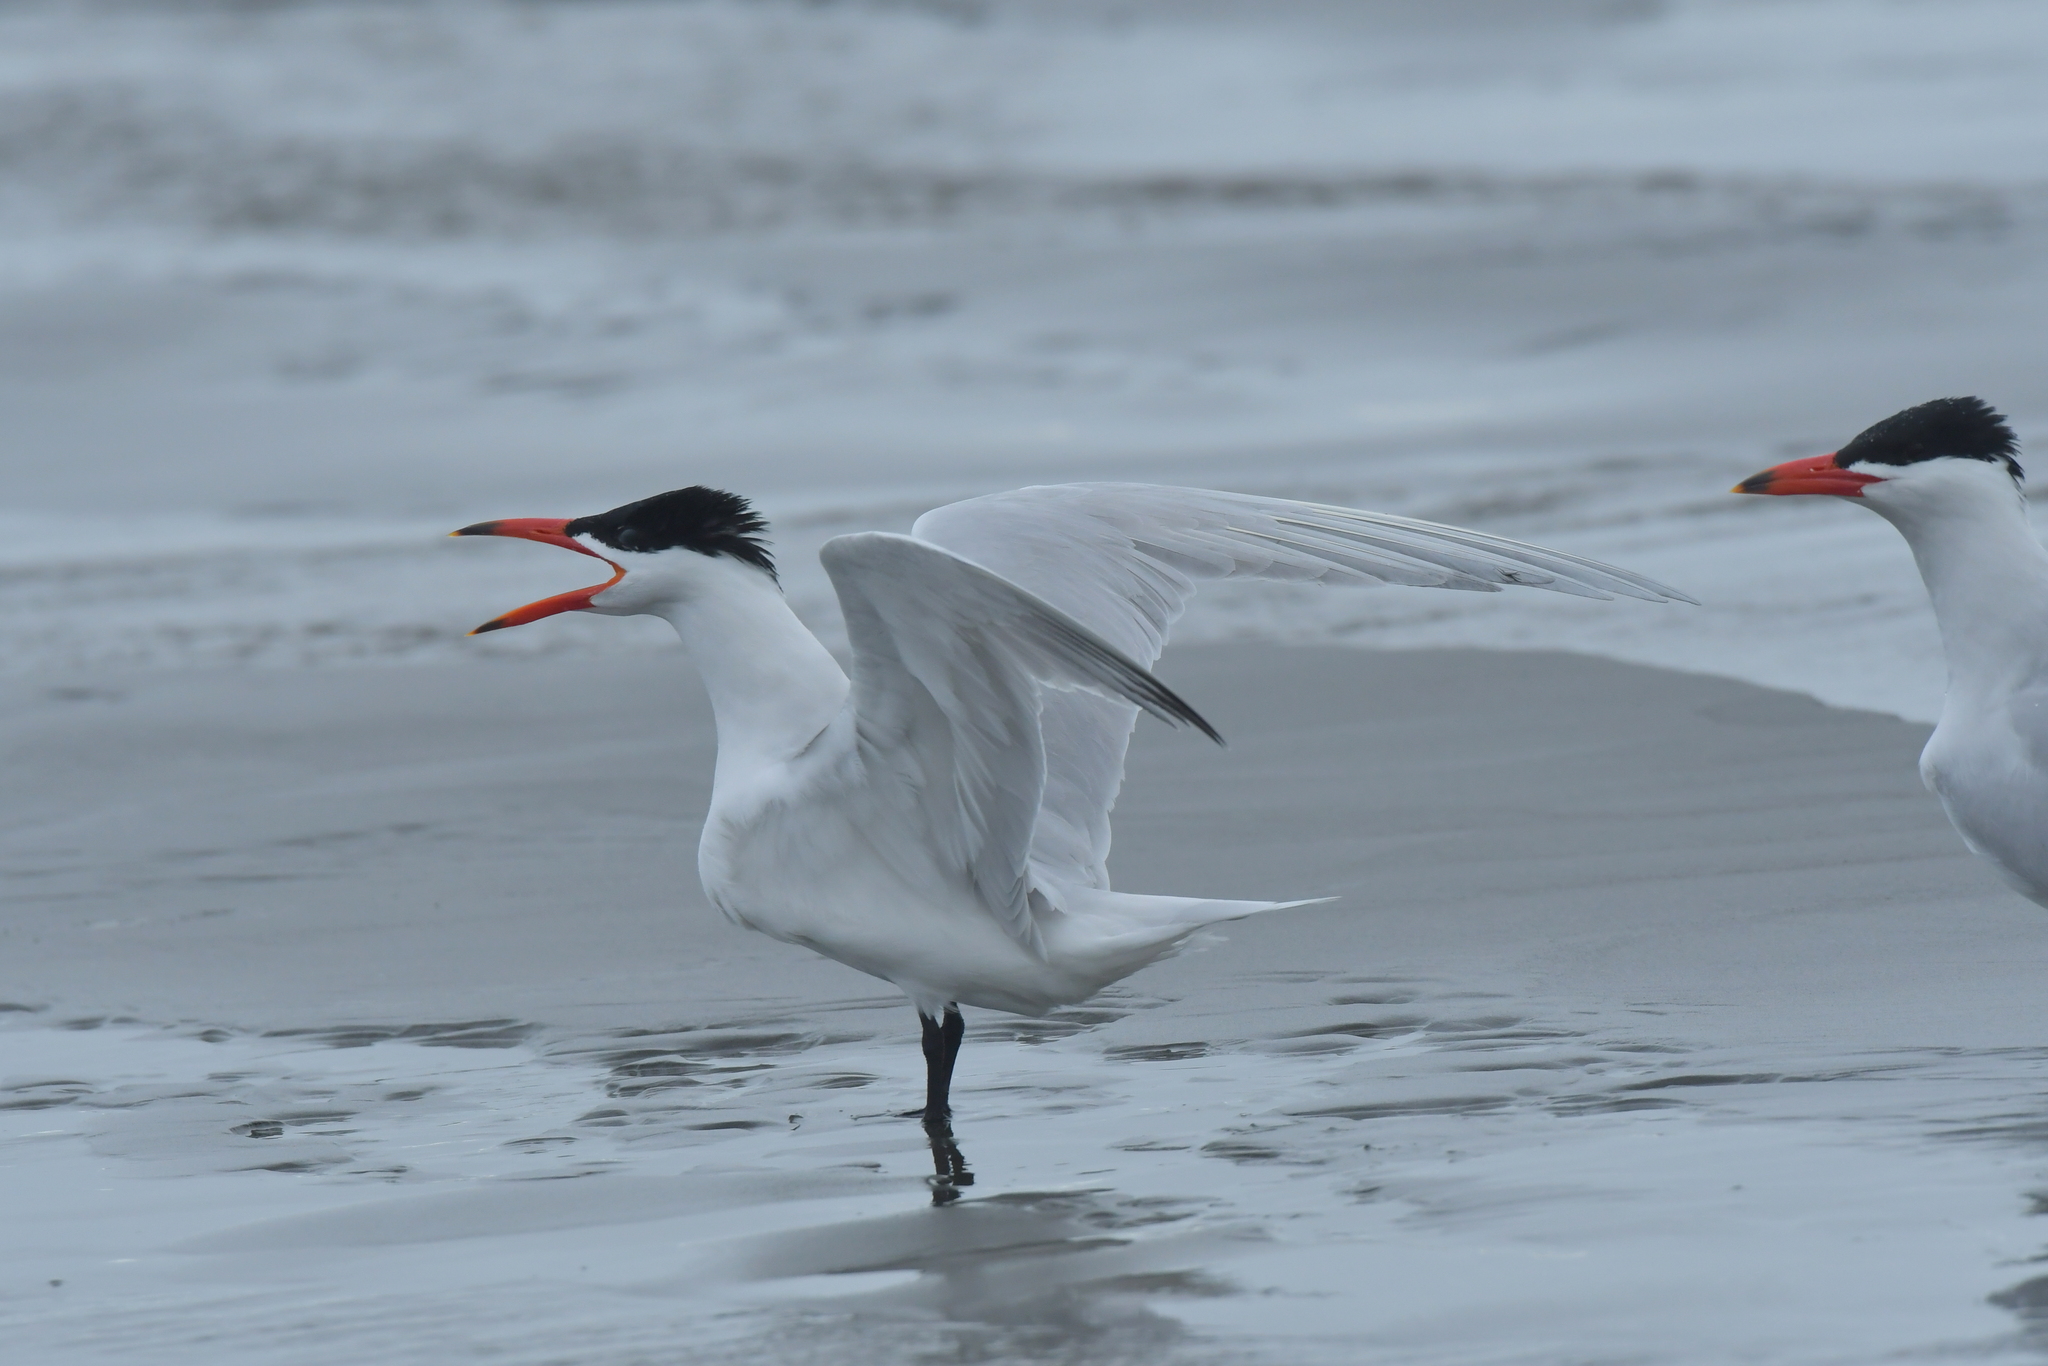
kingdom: Animalia
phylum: Chordata
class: Aves
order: Charadriiformes
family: Laridae
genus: Hydroprogne
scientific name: Hydroprogne caspia
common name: Caspian tern
